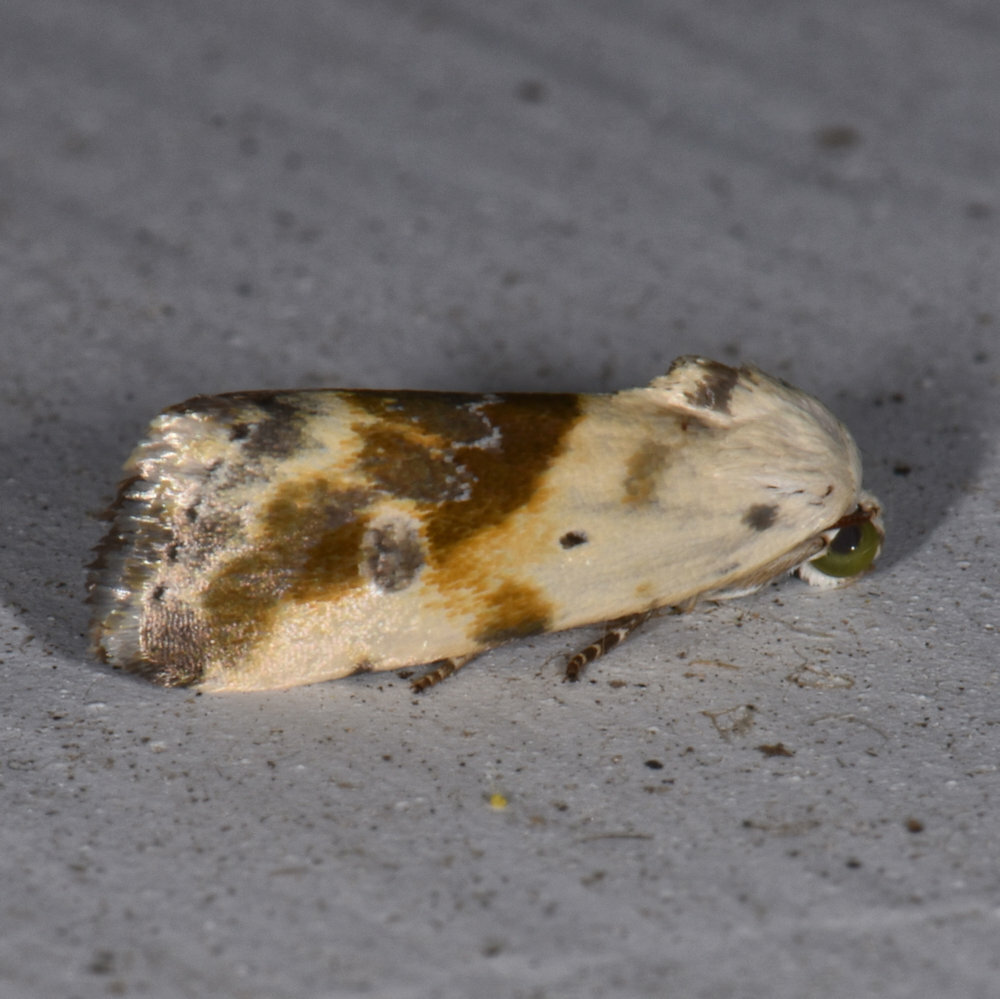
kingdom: Animalia
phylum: Arthropoda
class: Insecta
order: Lepidoptera
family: Noctuidae
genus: Acontia
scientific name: Acontia candefacta
